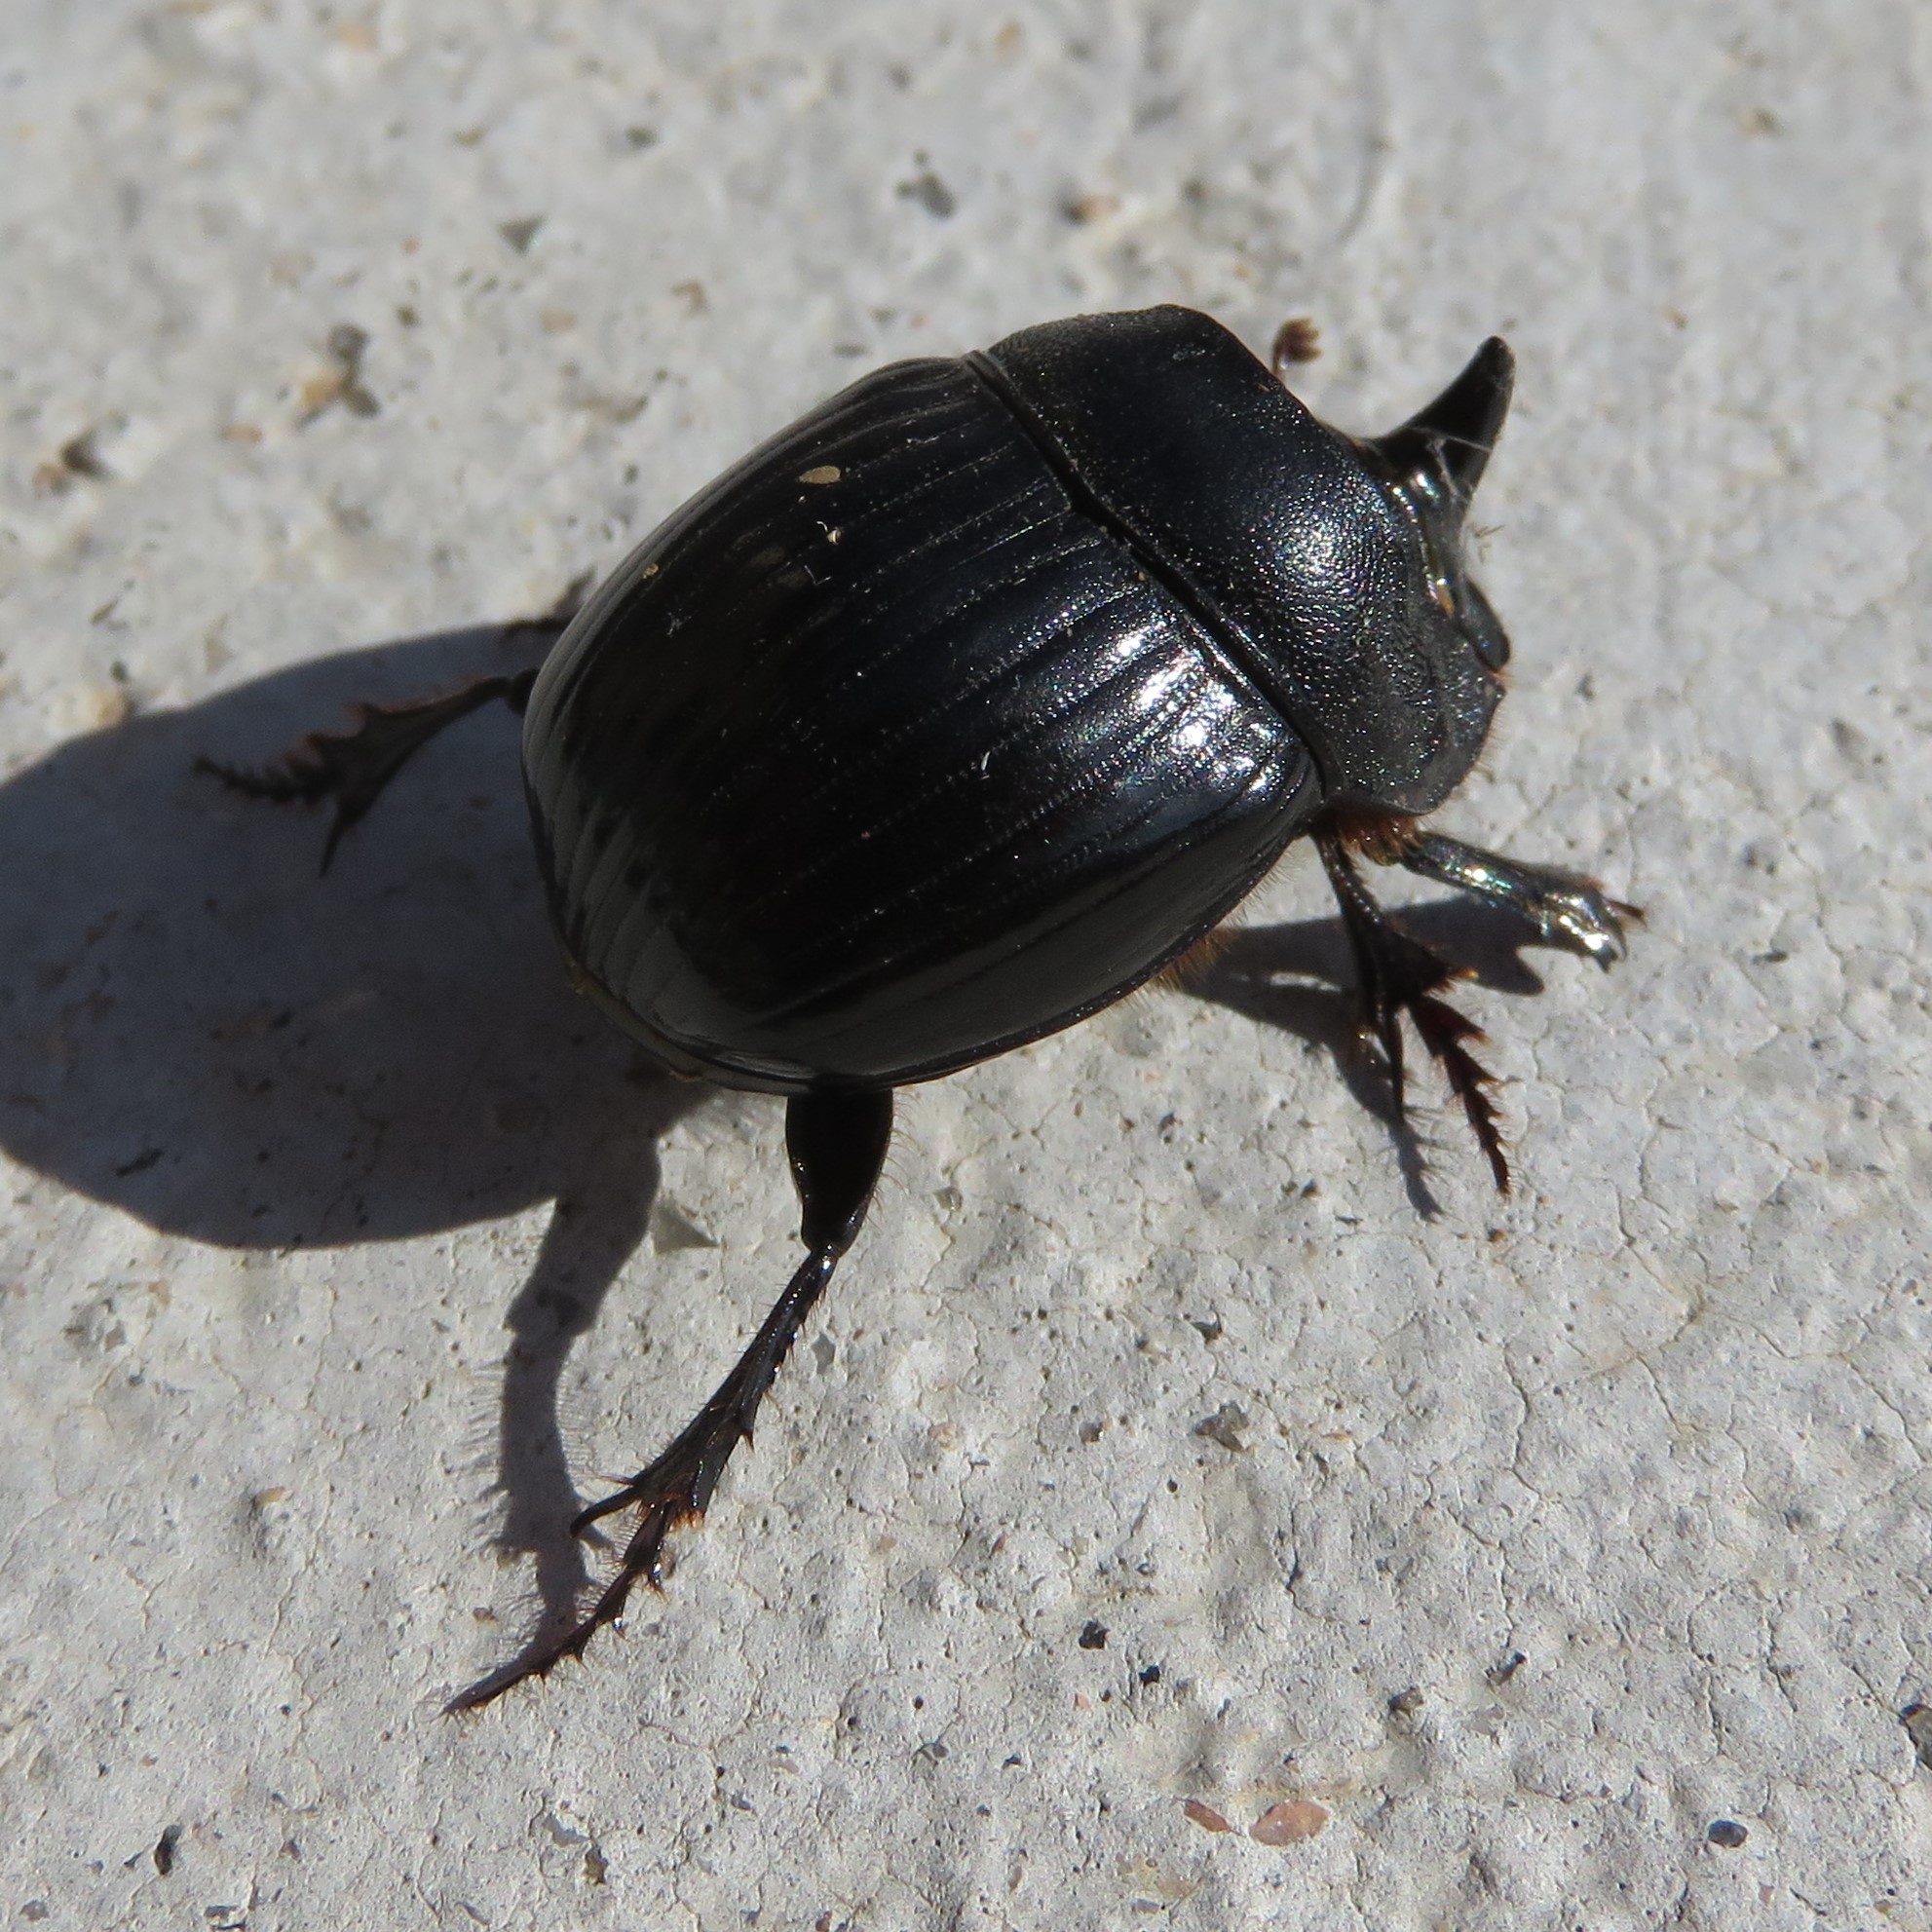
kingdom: Animalia
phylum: Arthropoda
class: Insecta
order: Coleoptera
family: Scarabaeidae
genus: Copris
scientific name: Copris hispanus
